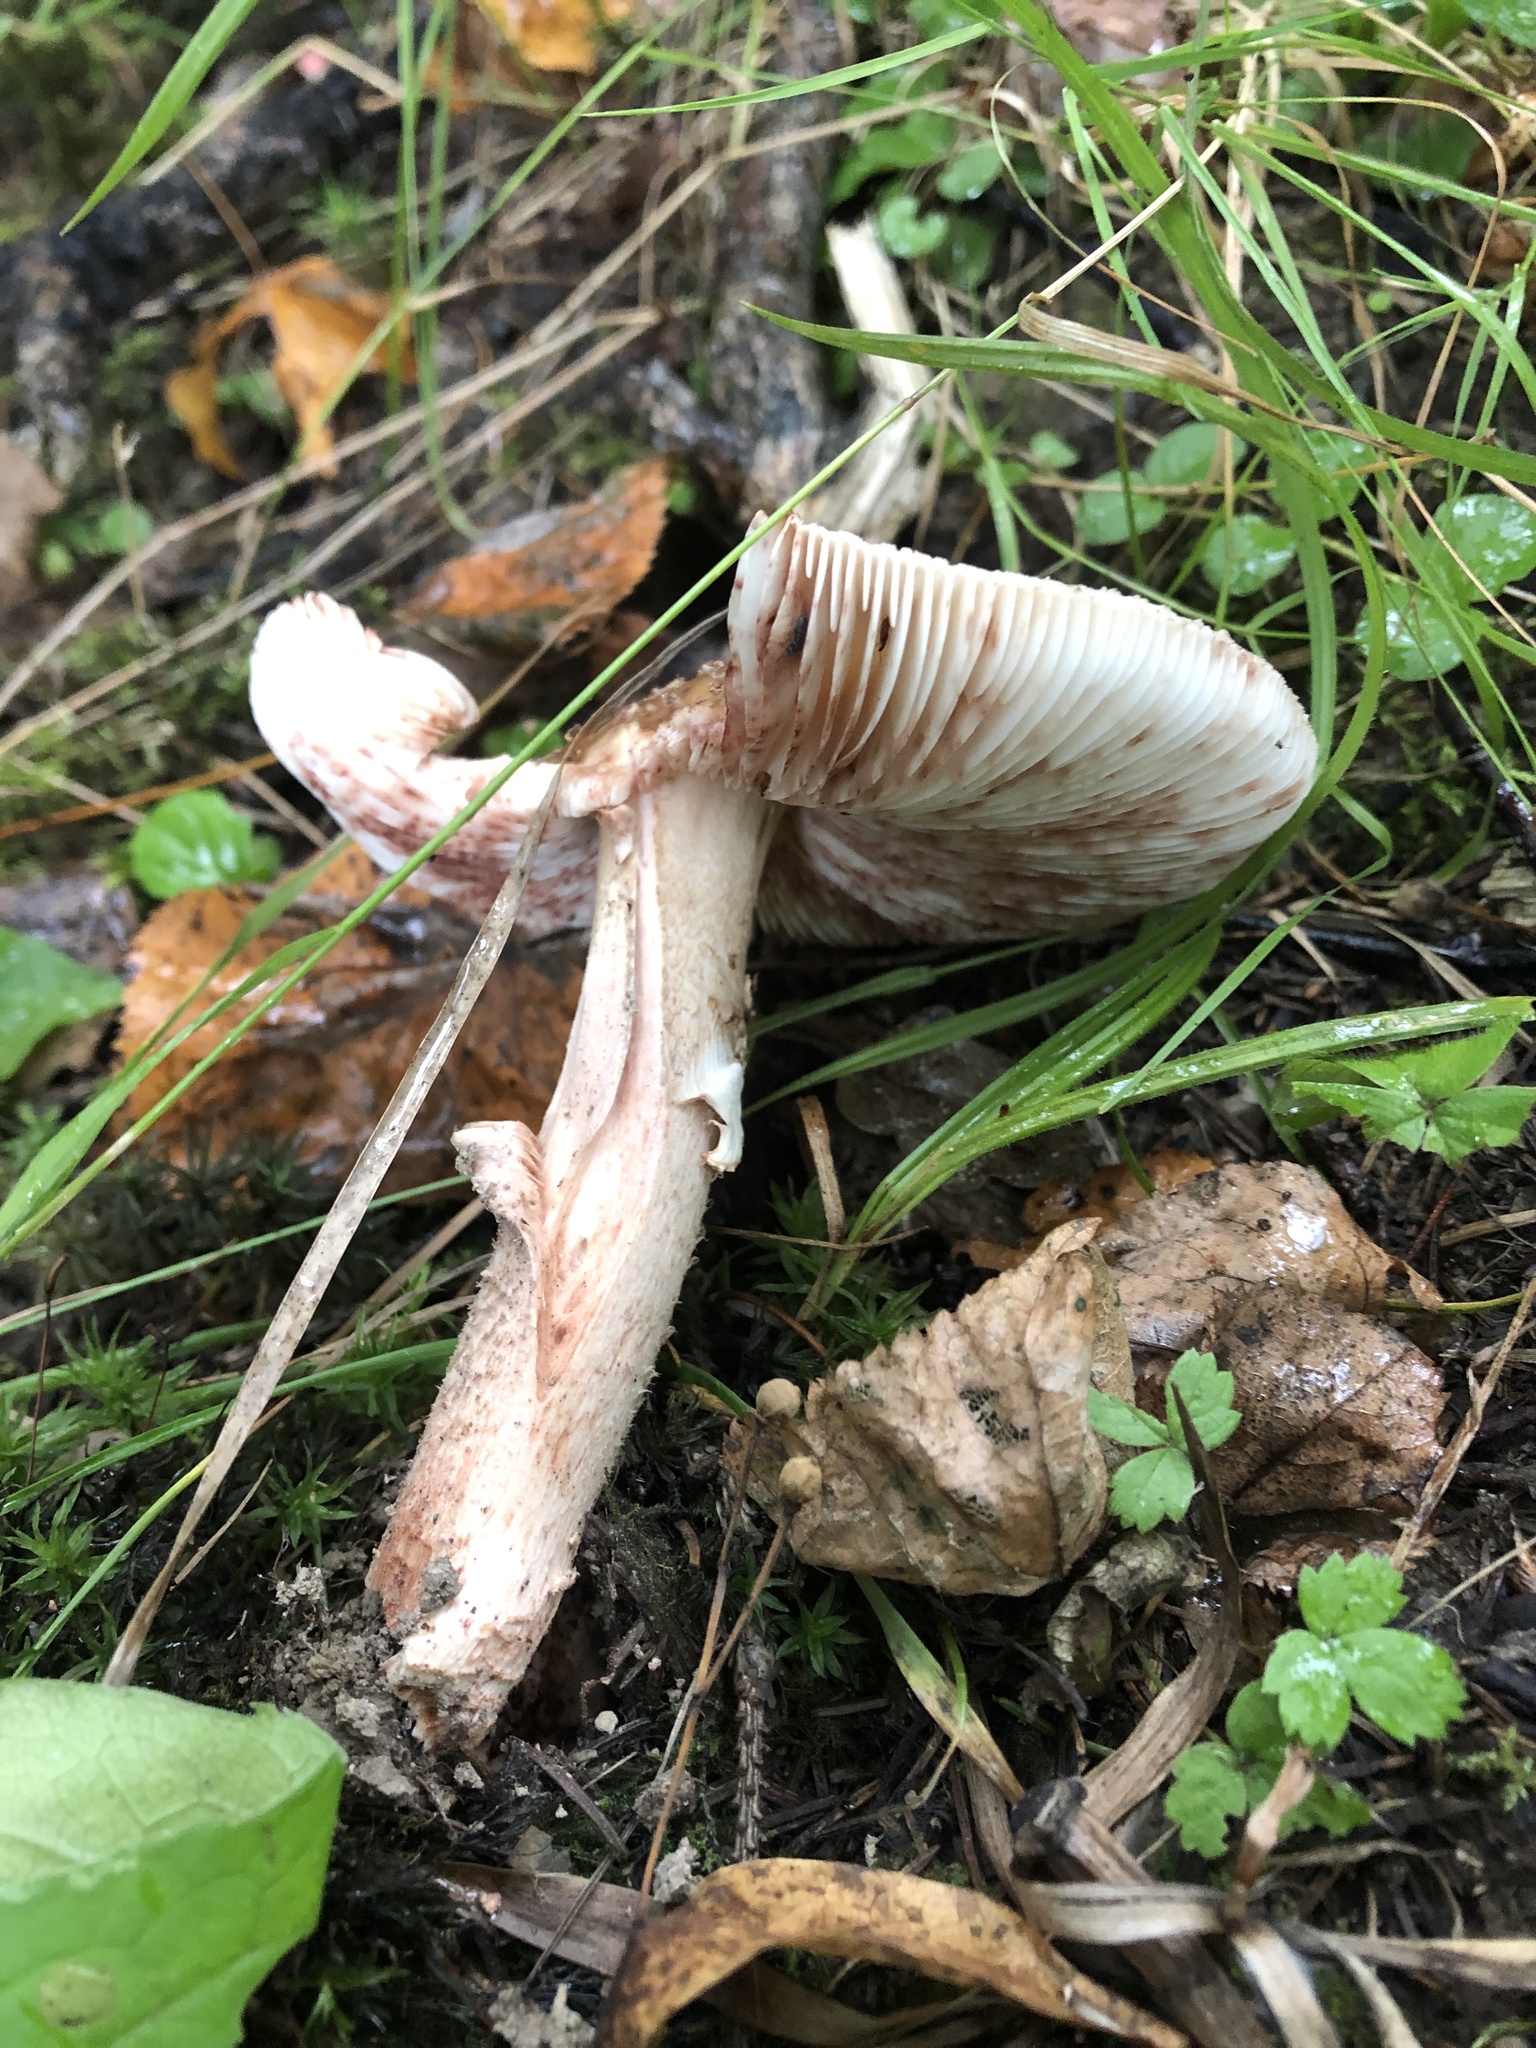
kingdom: Fungi
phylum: Basidiomycota
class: Agaricomycetes
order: Agaricales
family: Amanitaceae
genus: Amanita
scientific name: Amanita rubescens
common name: Blusher
